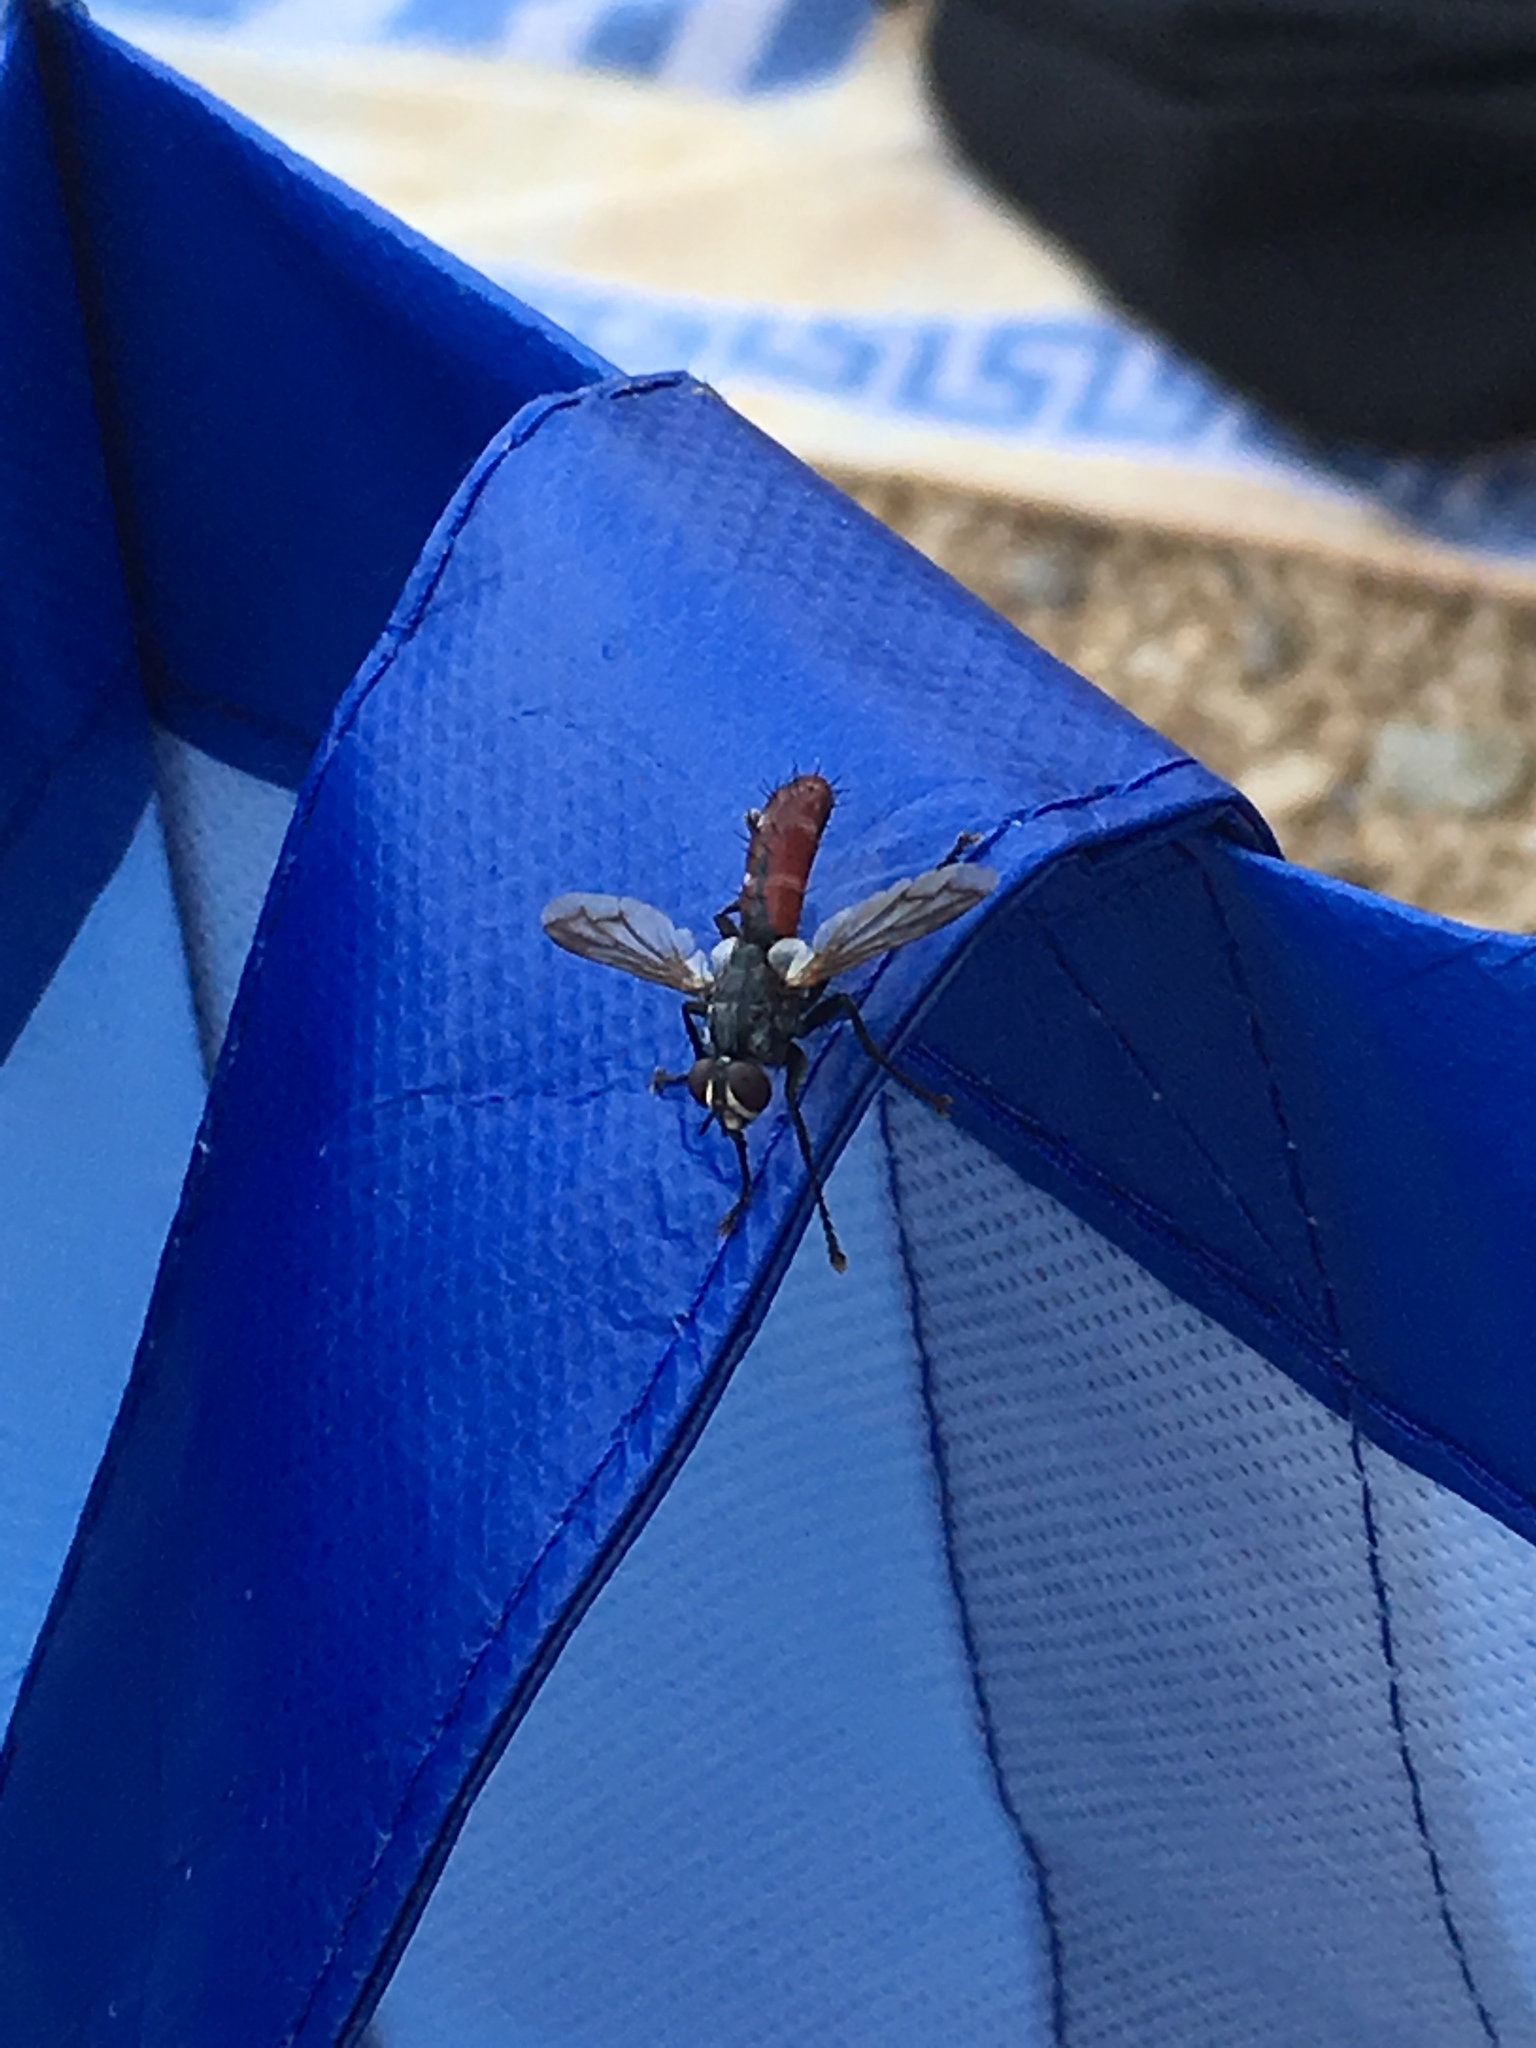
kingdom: Animalia
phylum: Arthropoda
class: Insecta
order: Diptera
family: Tachinidae
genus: Cylindromyia
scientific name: Cylindromyia bicolor
